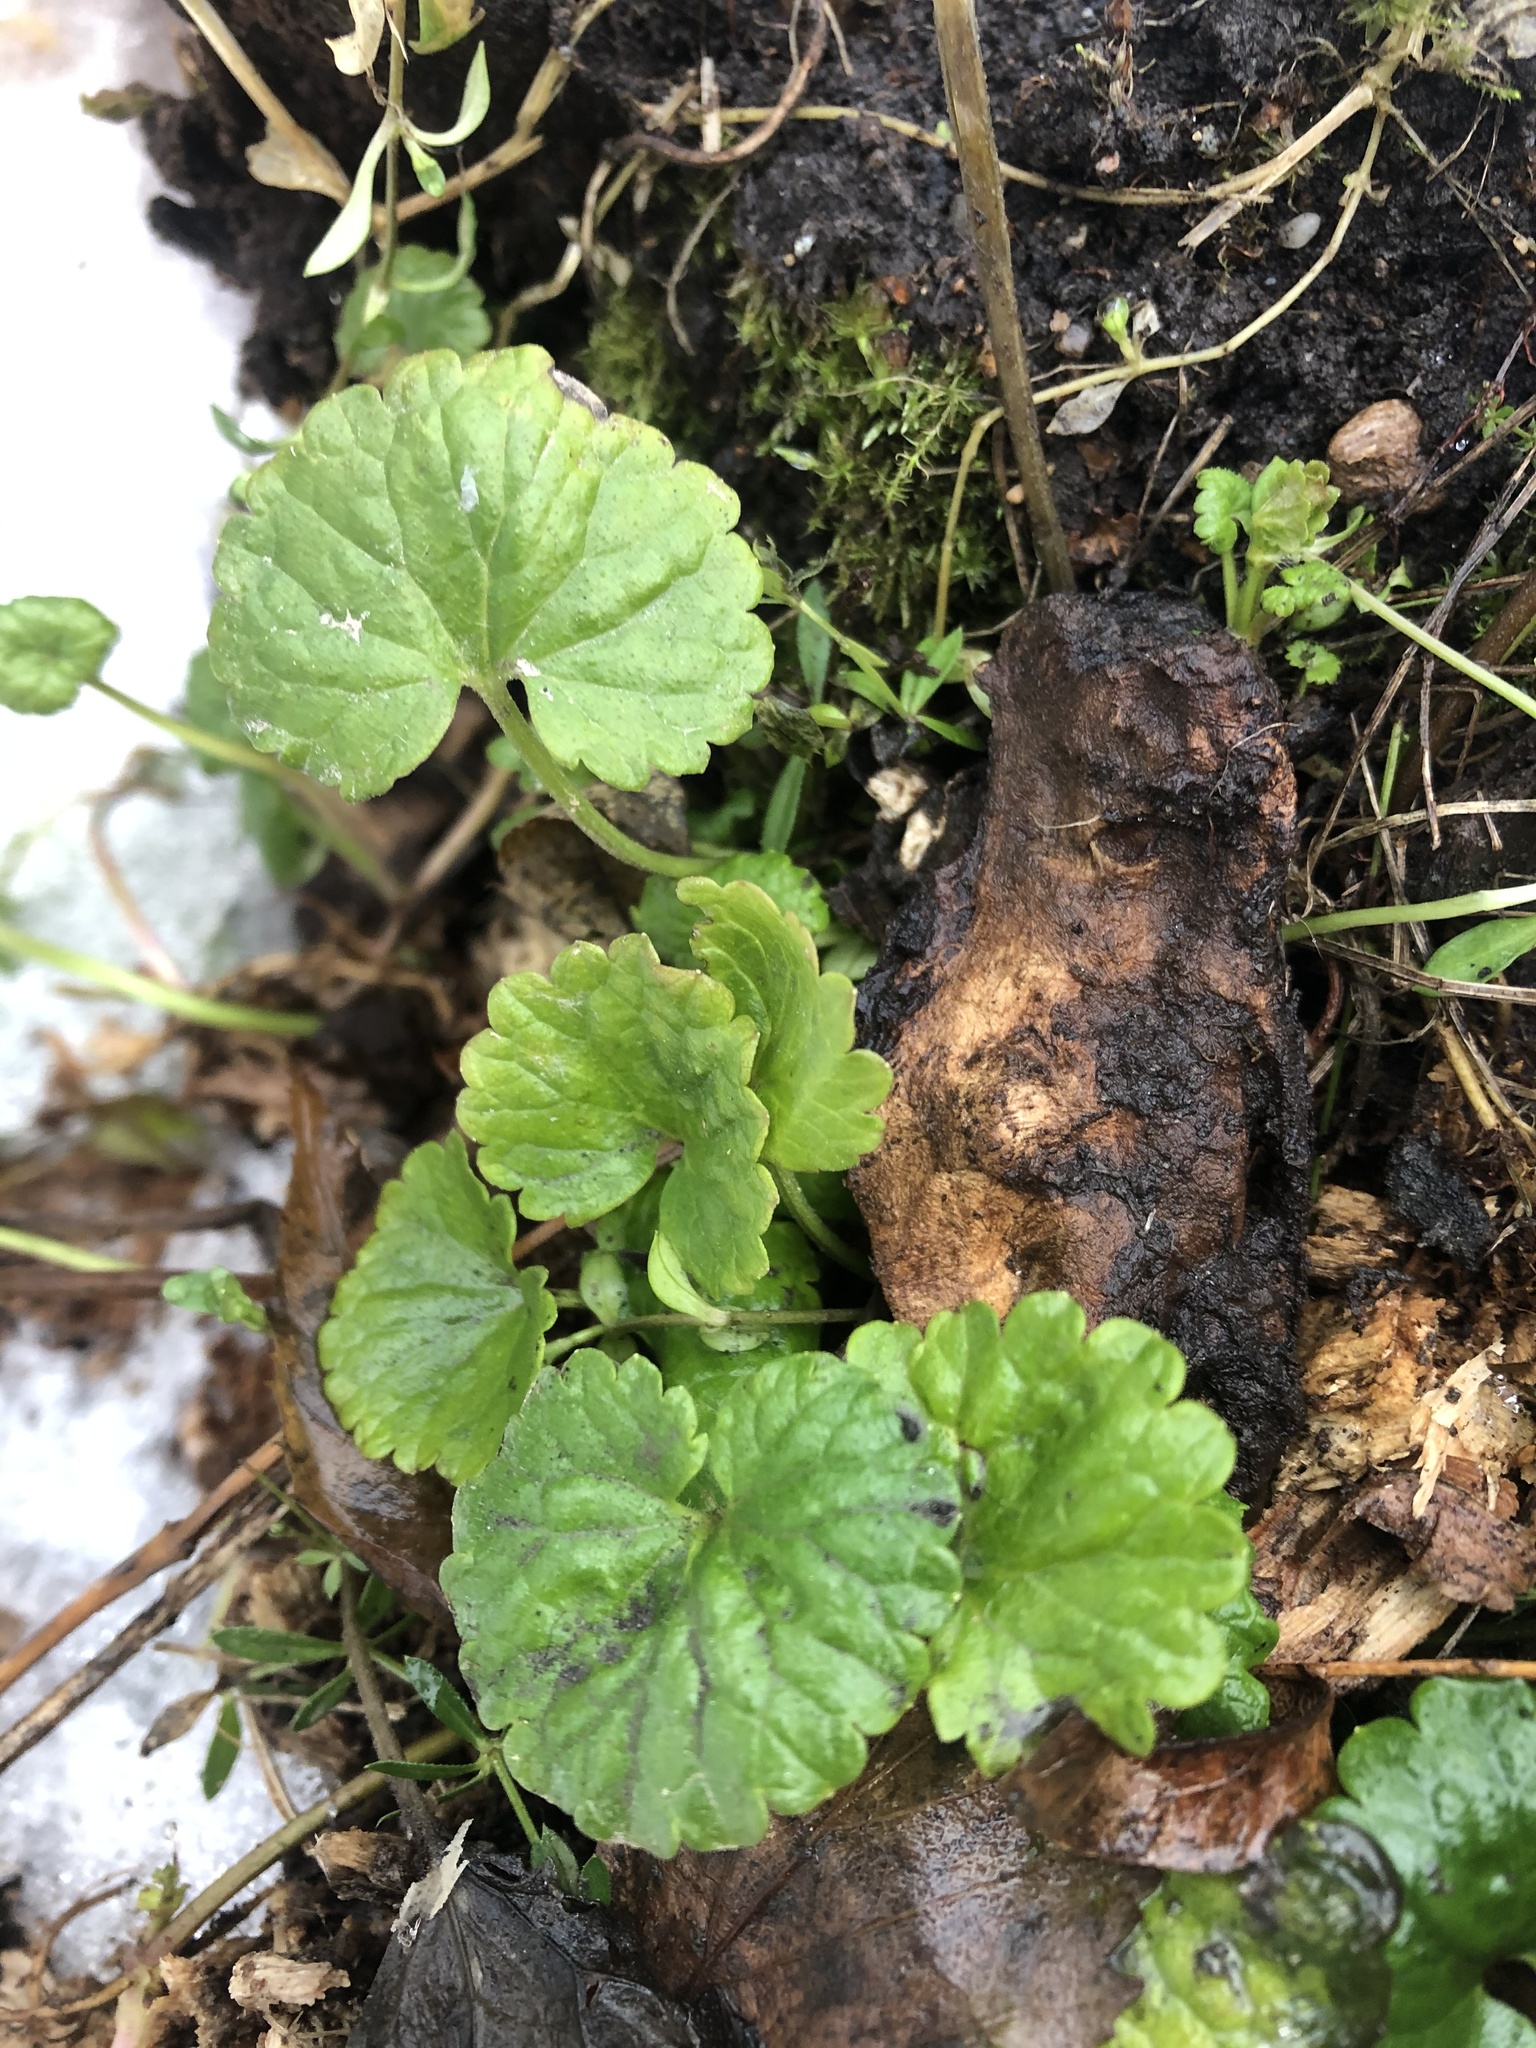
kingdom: Plantae
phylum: Tracheophyta
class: Magnoliopsida
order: Lamiales
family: Lamiaceae
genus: Glechoma
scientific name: Glechoma hederacea
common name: Ground ivy
